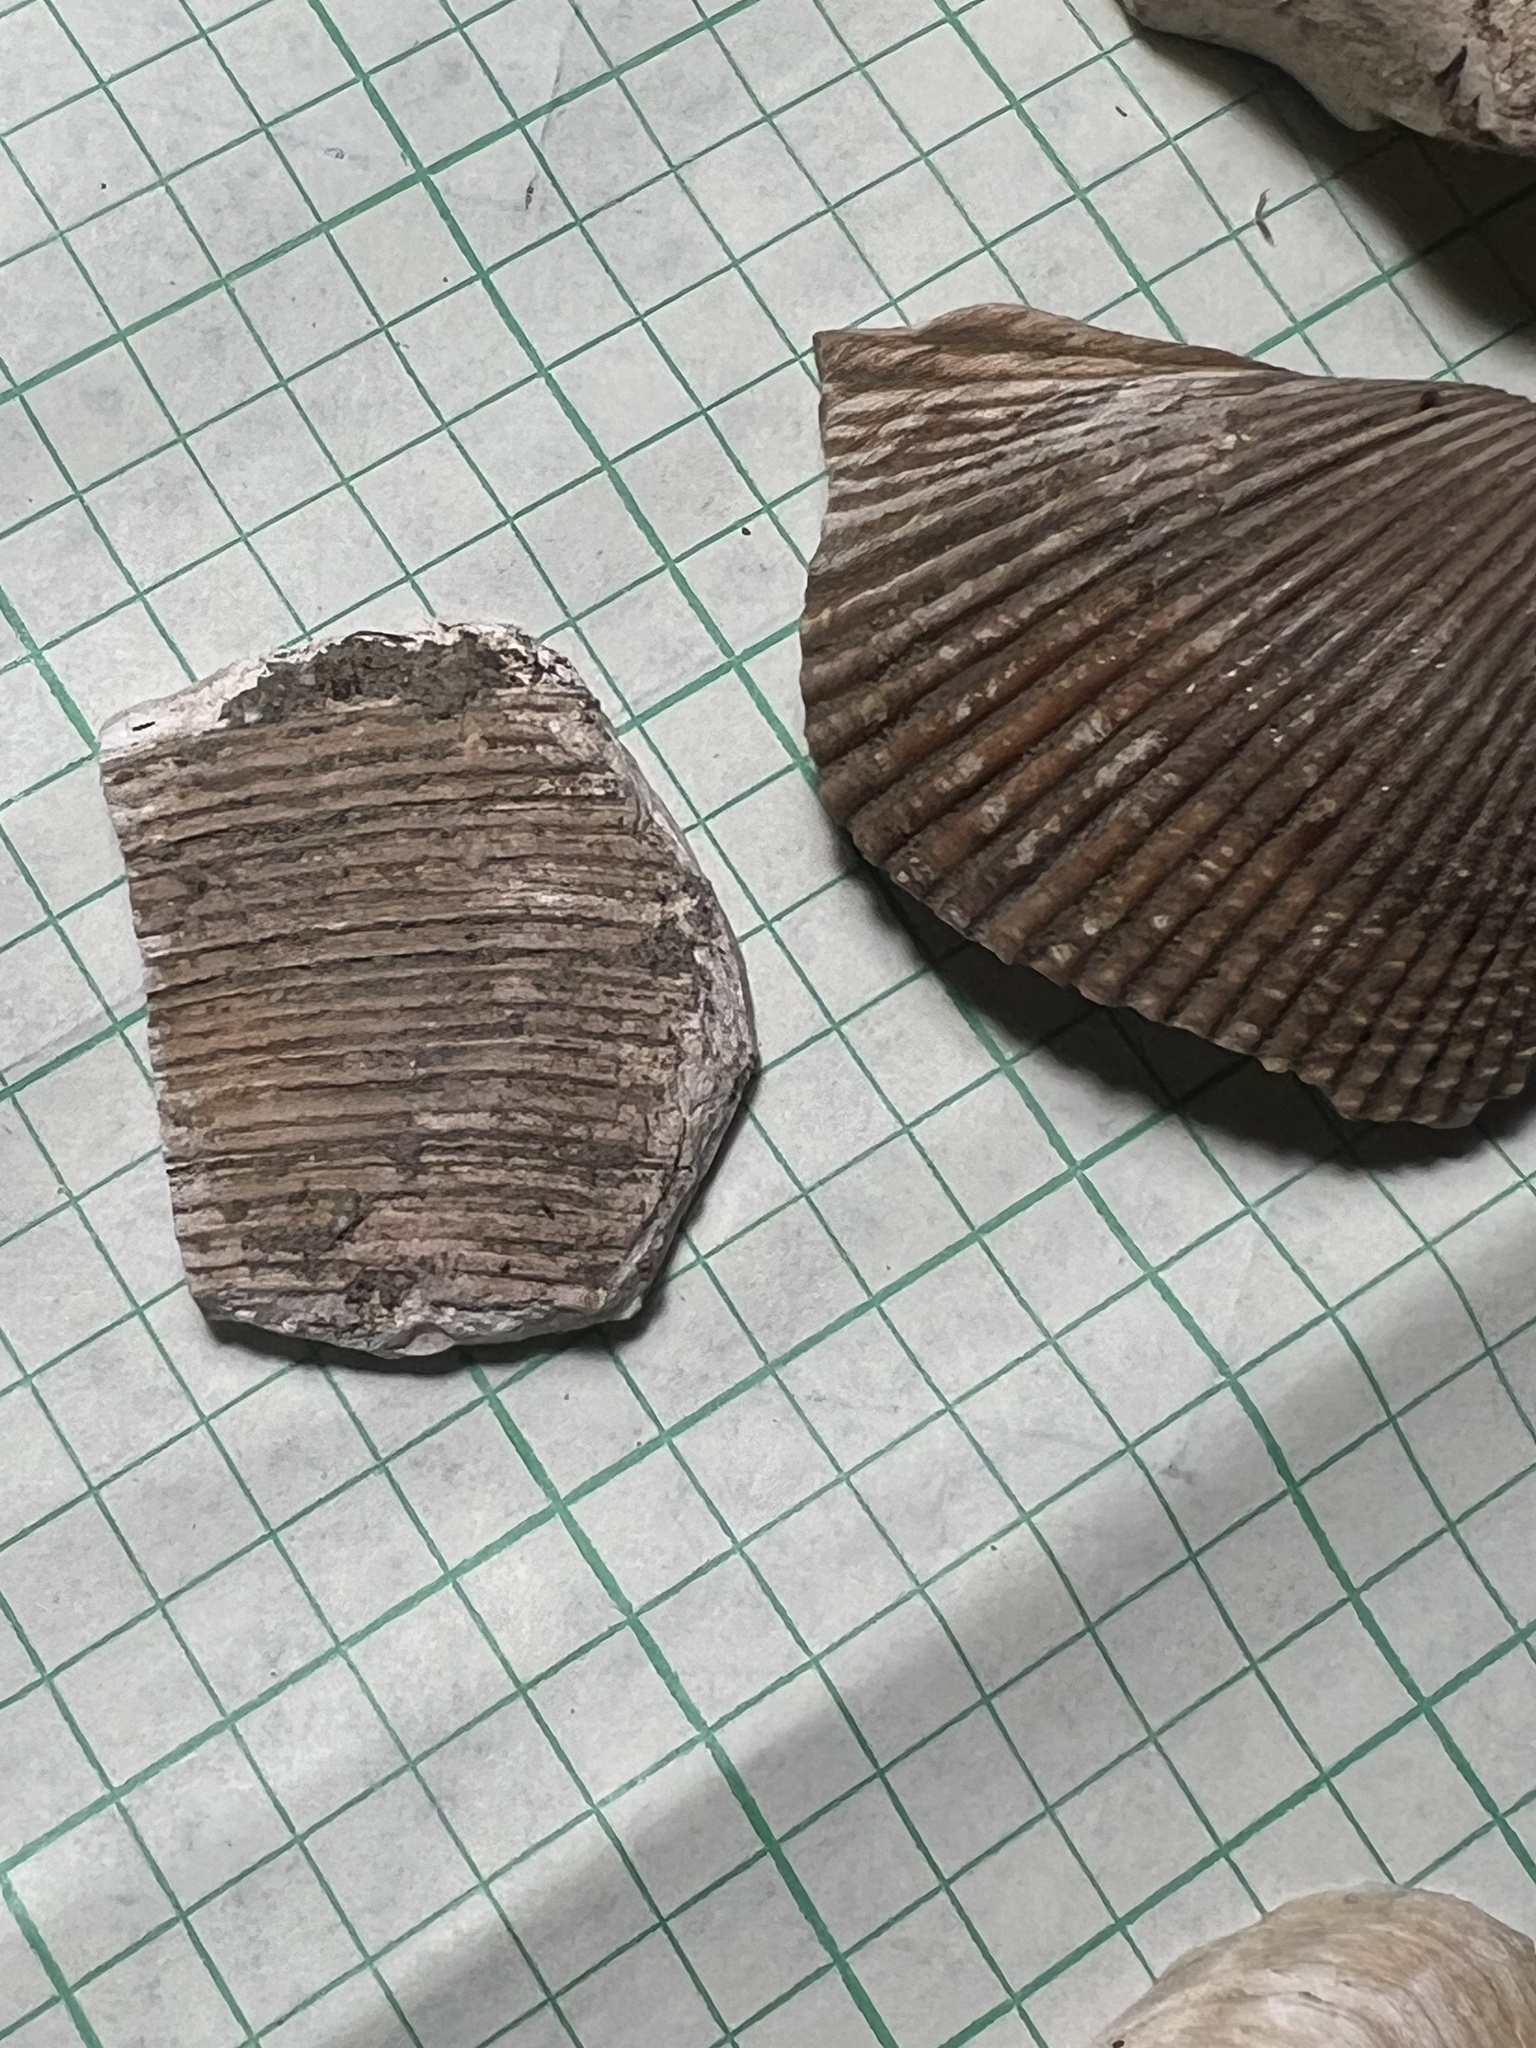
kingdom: Animalia
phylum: Mollusca
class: Bivalvia
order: Cardiida
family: Cardiidae
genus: Clinocardium
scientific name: Clinocardium nuttallii
